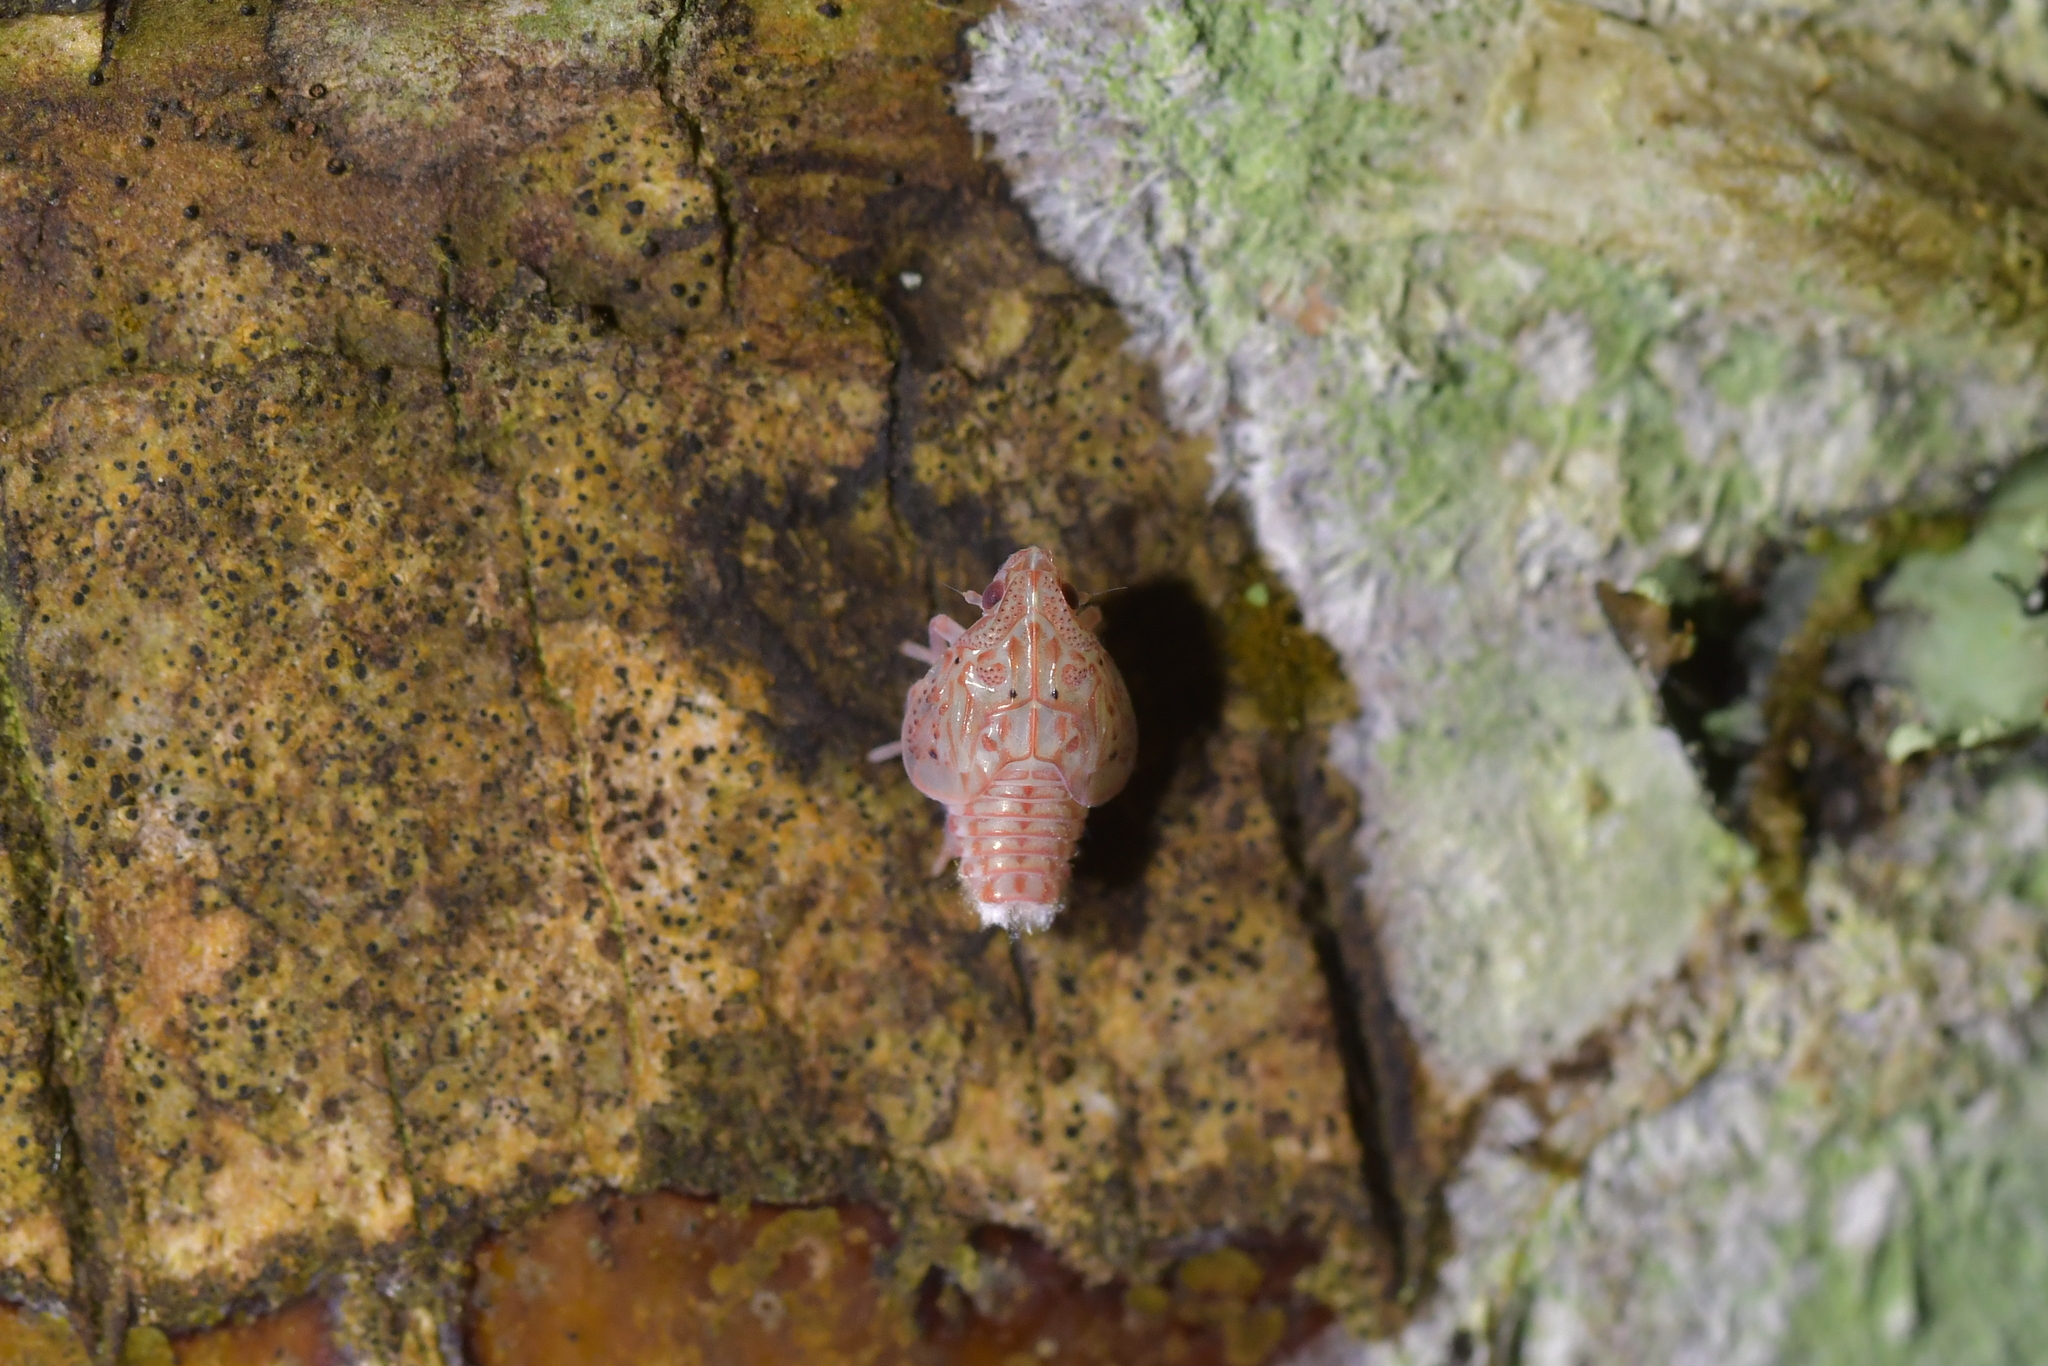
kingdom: Animalia
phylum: Arthropoda
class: Insecta
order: Hemiptera
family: Flatidae
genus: Siphanta
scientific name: Siphanta acuta
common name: Torpedo bug
